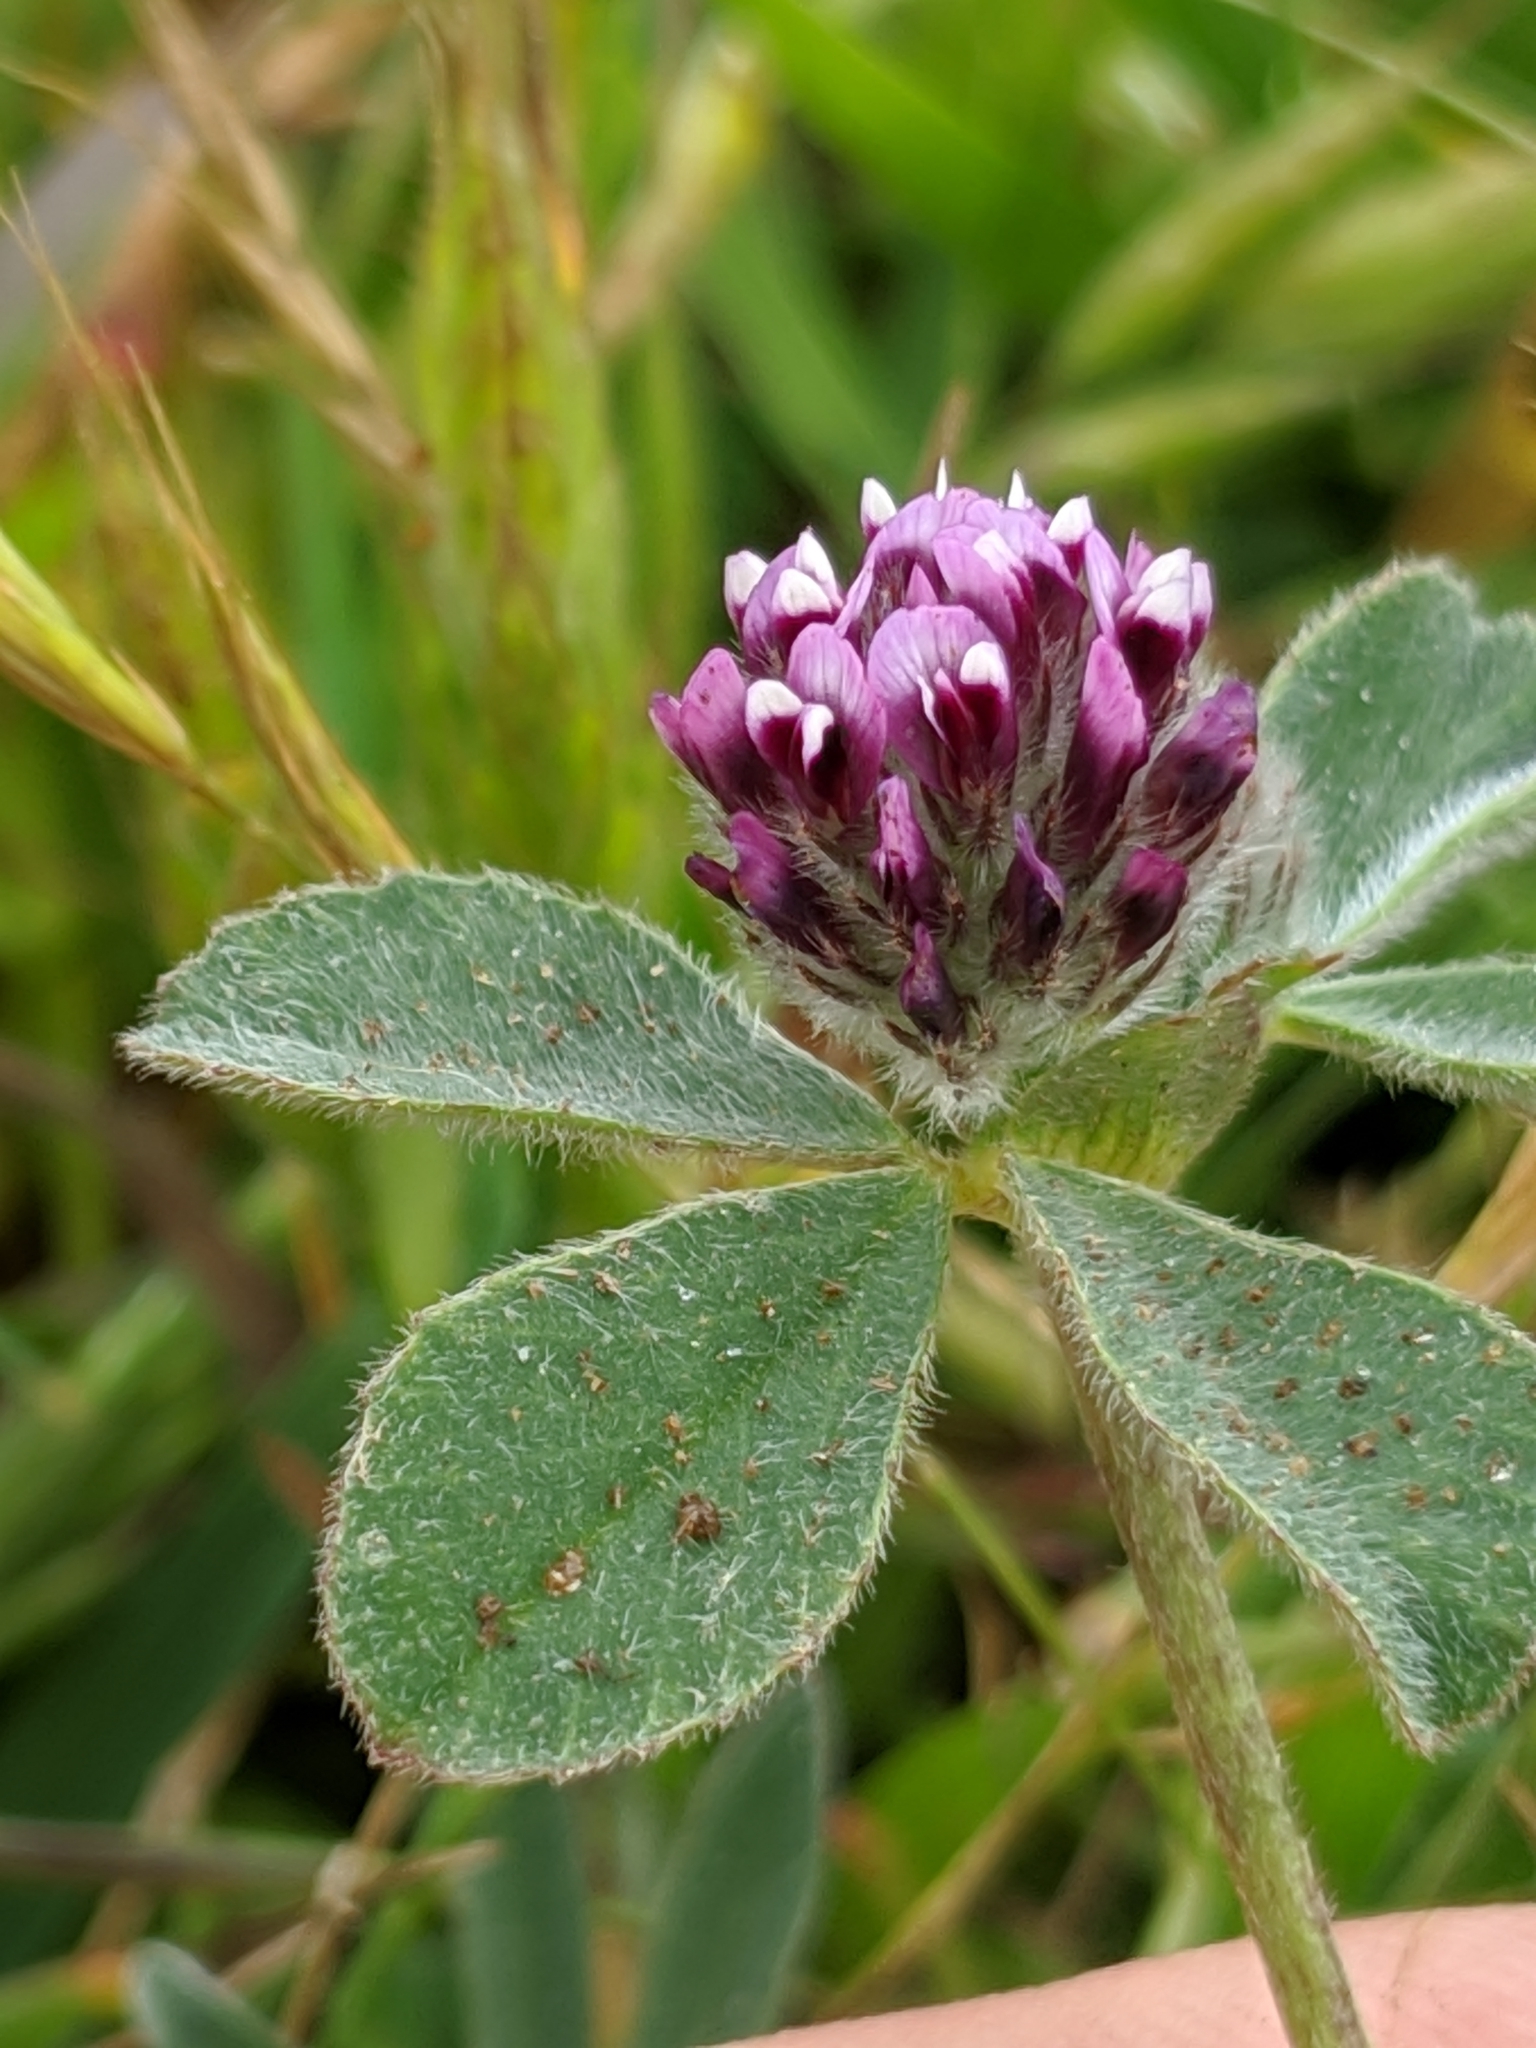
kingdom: Plantae
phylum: Tracheophyta
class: Magnoliopsida
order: Fabales
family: Fabaceae
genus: Trifolium
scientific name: Trifolium macraei
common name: Macrae's clover
